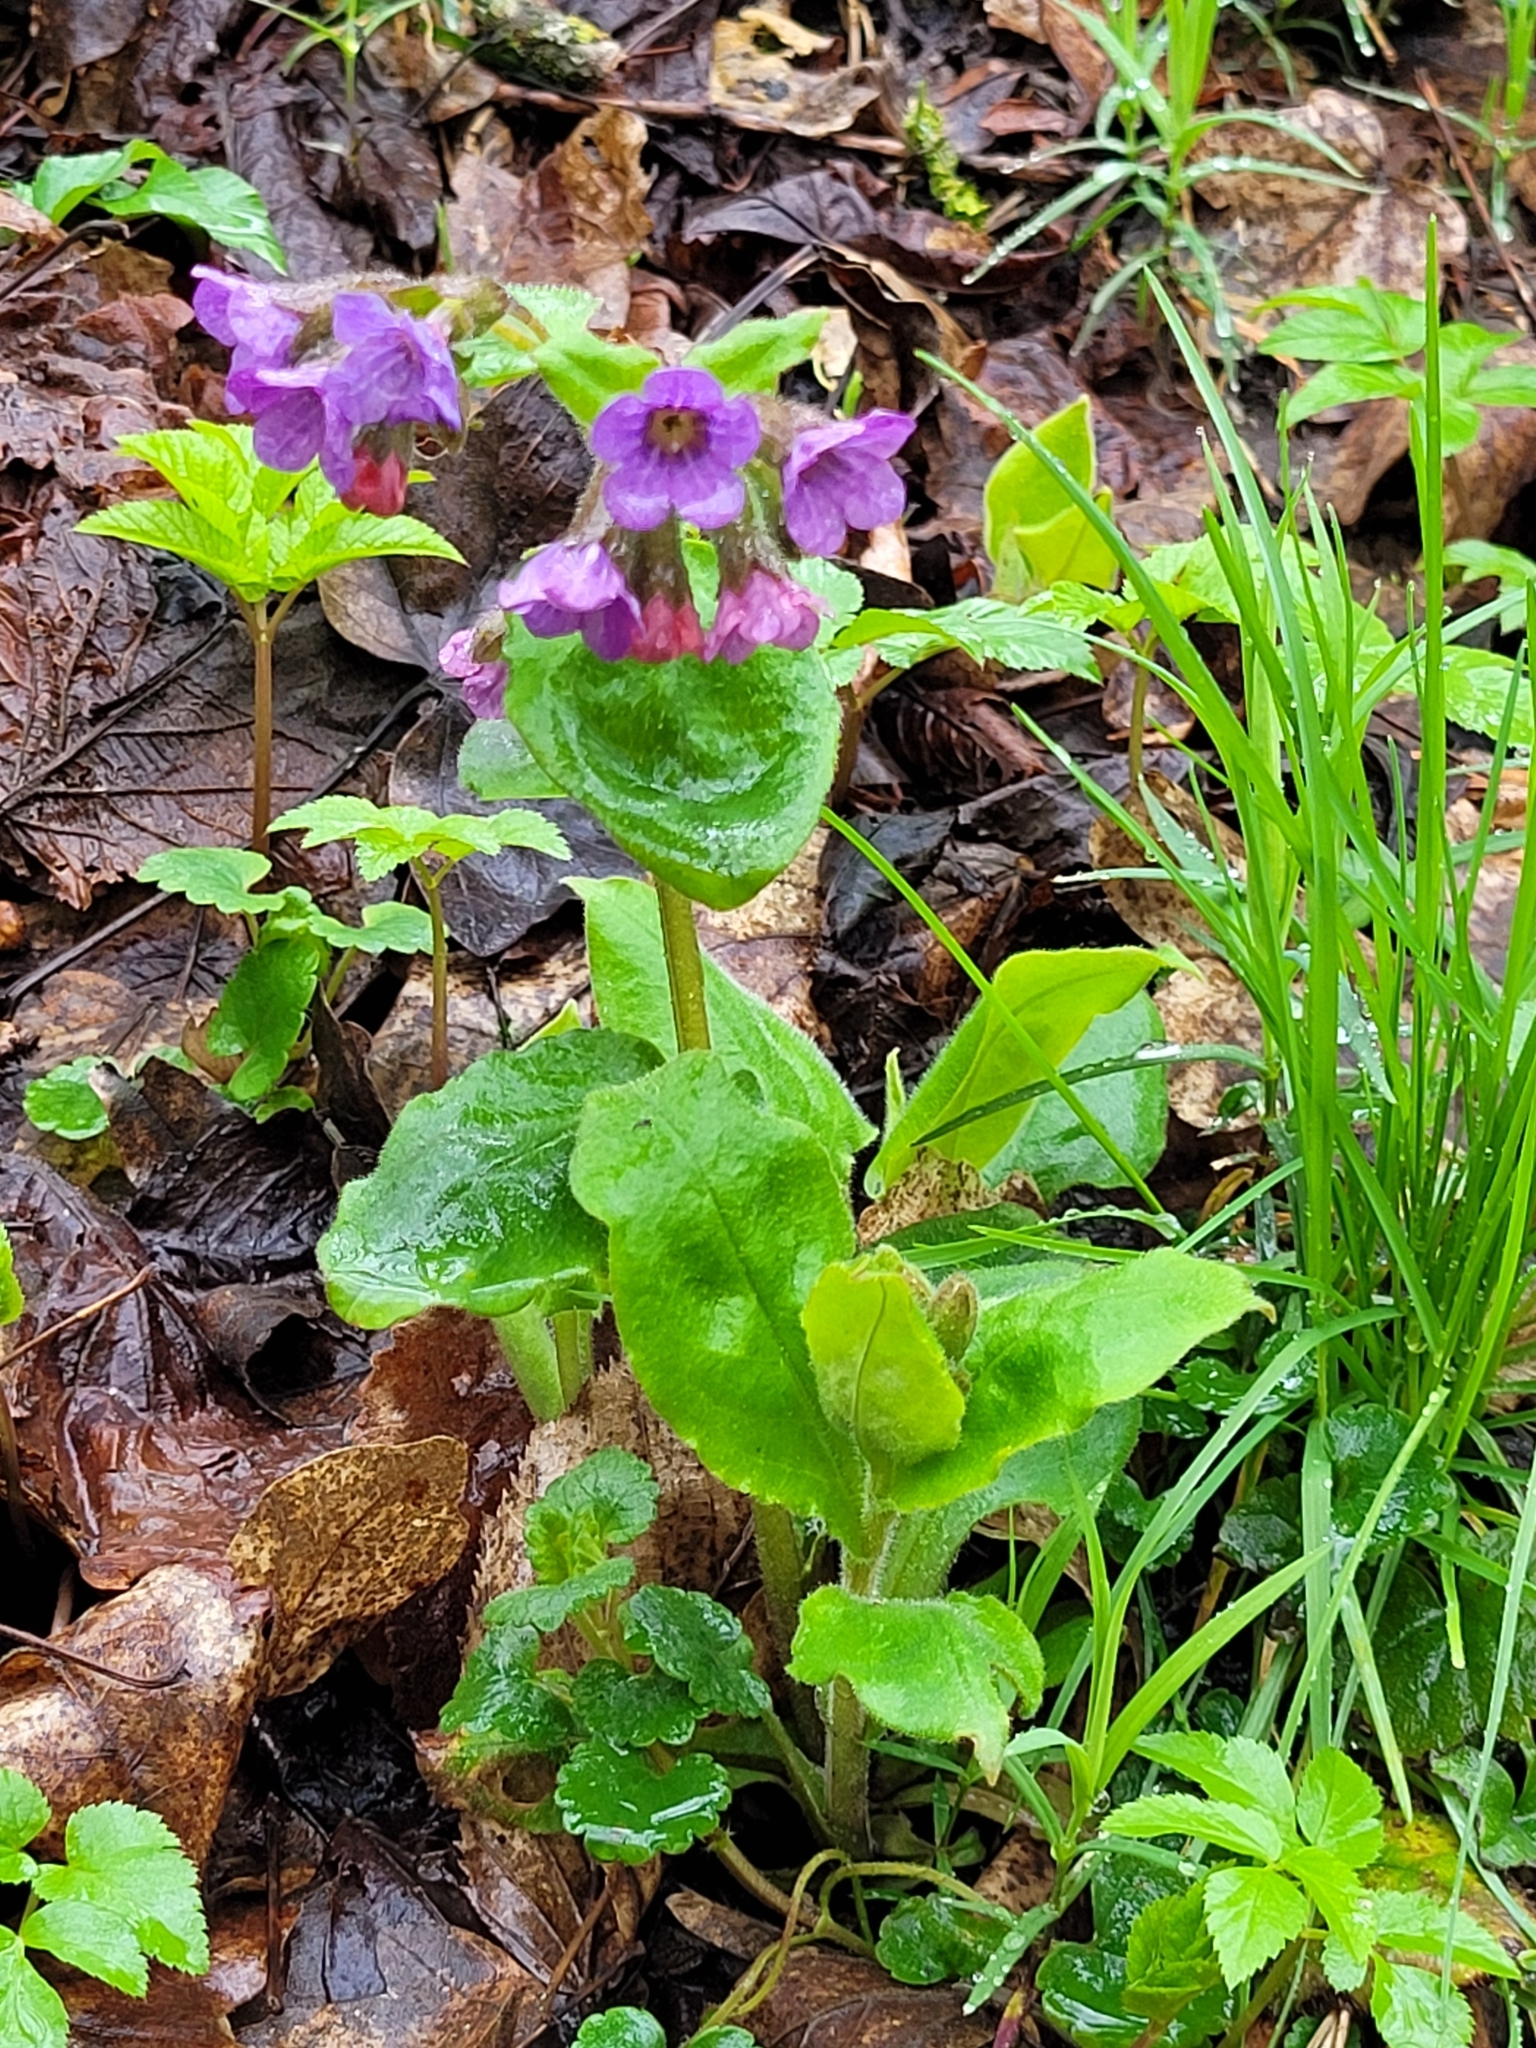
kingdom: Plantae
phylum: Tracheophyta
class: Magnoliopsida
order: Boraginales
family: Boraginaceae
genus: Pulmonaria
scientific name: Pulmonaria obscura
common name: Suffolk lungwort
